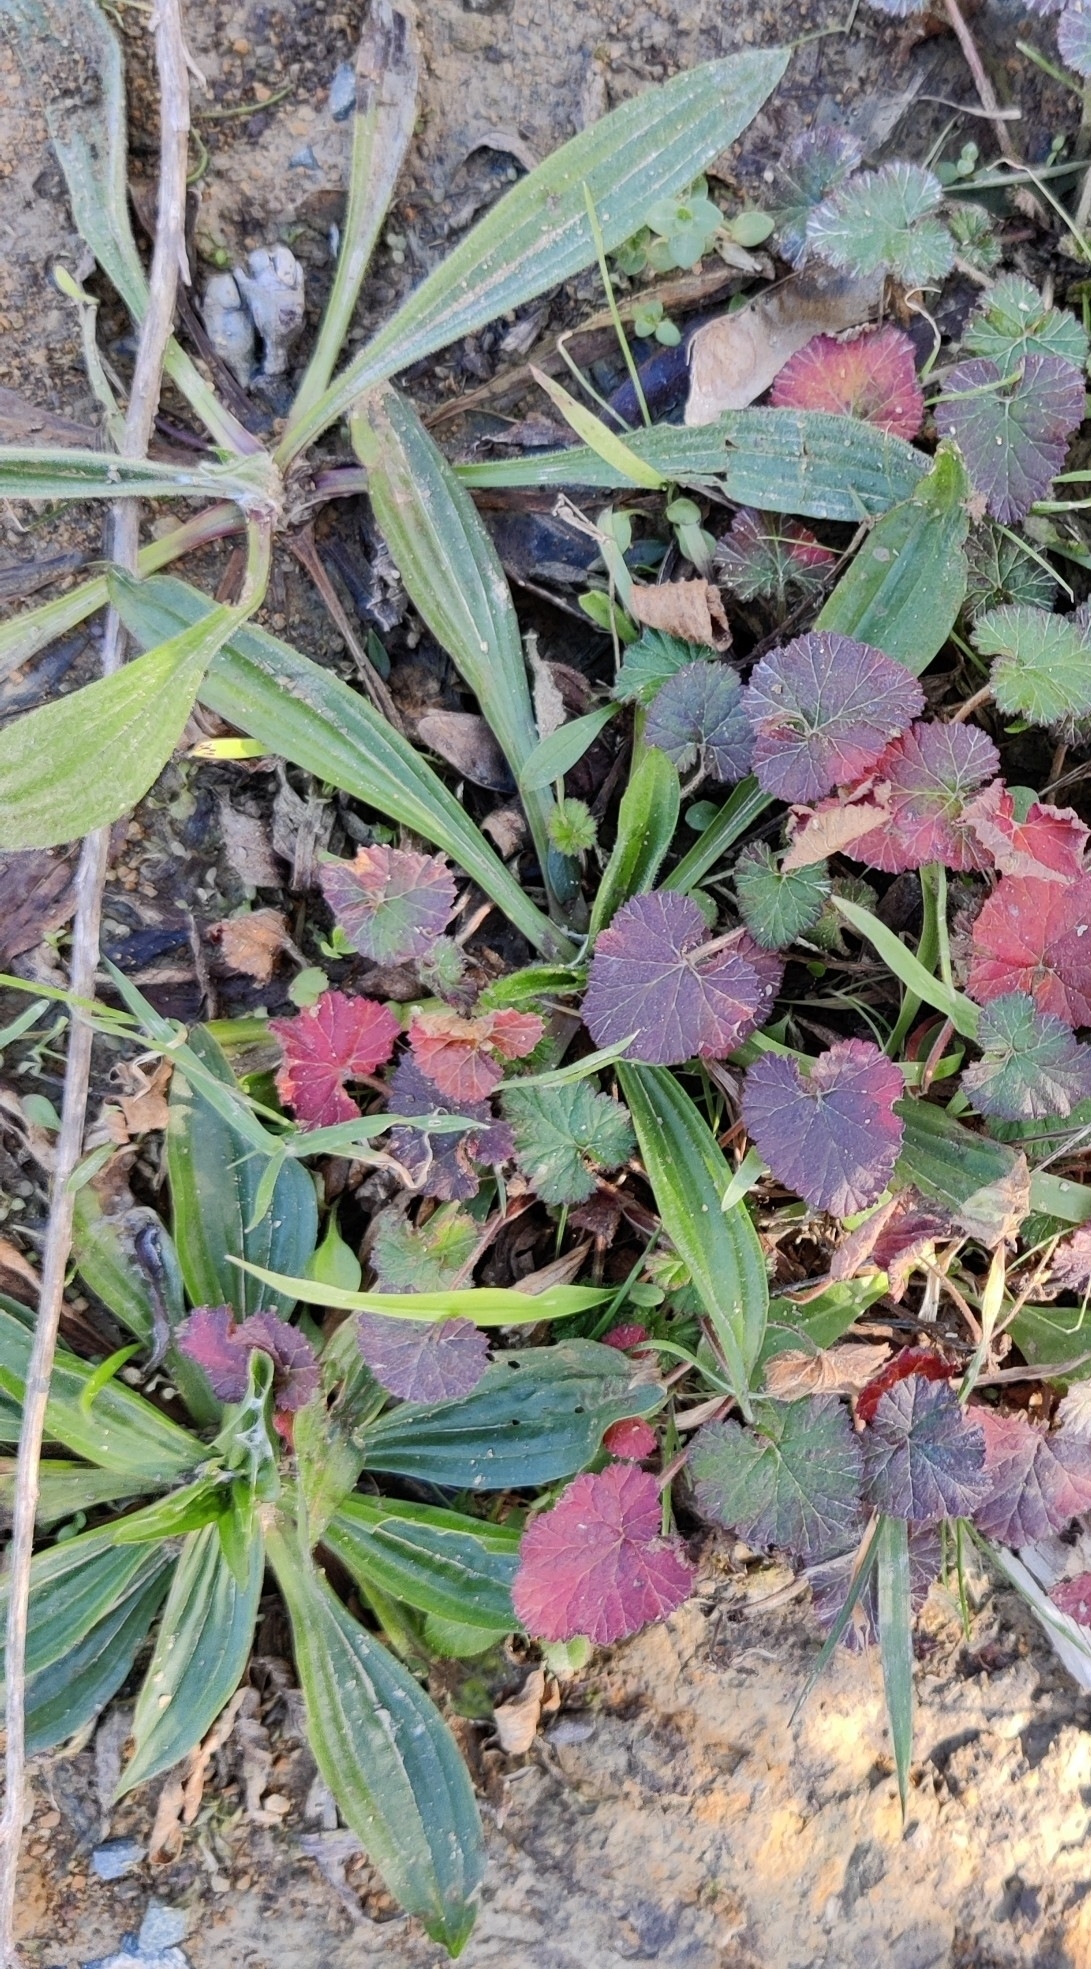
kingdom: Plantae
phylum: Tracheophyta
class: Magnoliopsida
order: Lamiales
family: Plantaginaceae
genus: Plantago
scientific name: Plantago lanceolata
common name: Ribwort plantain
